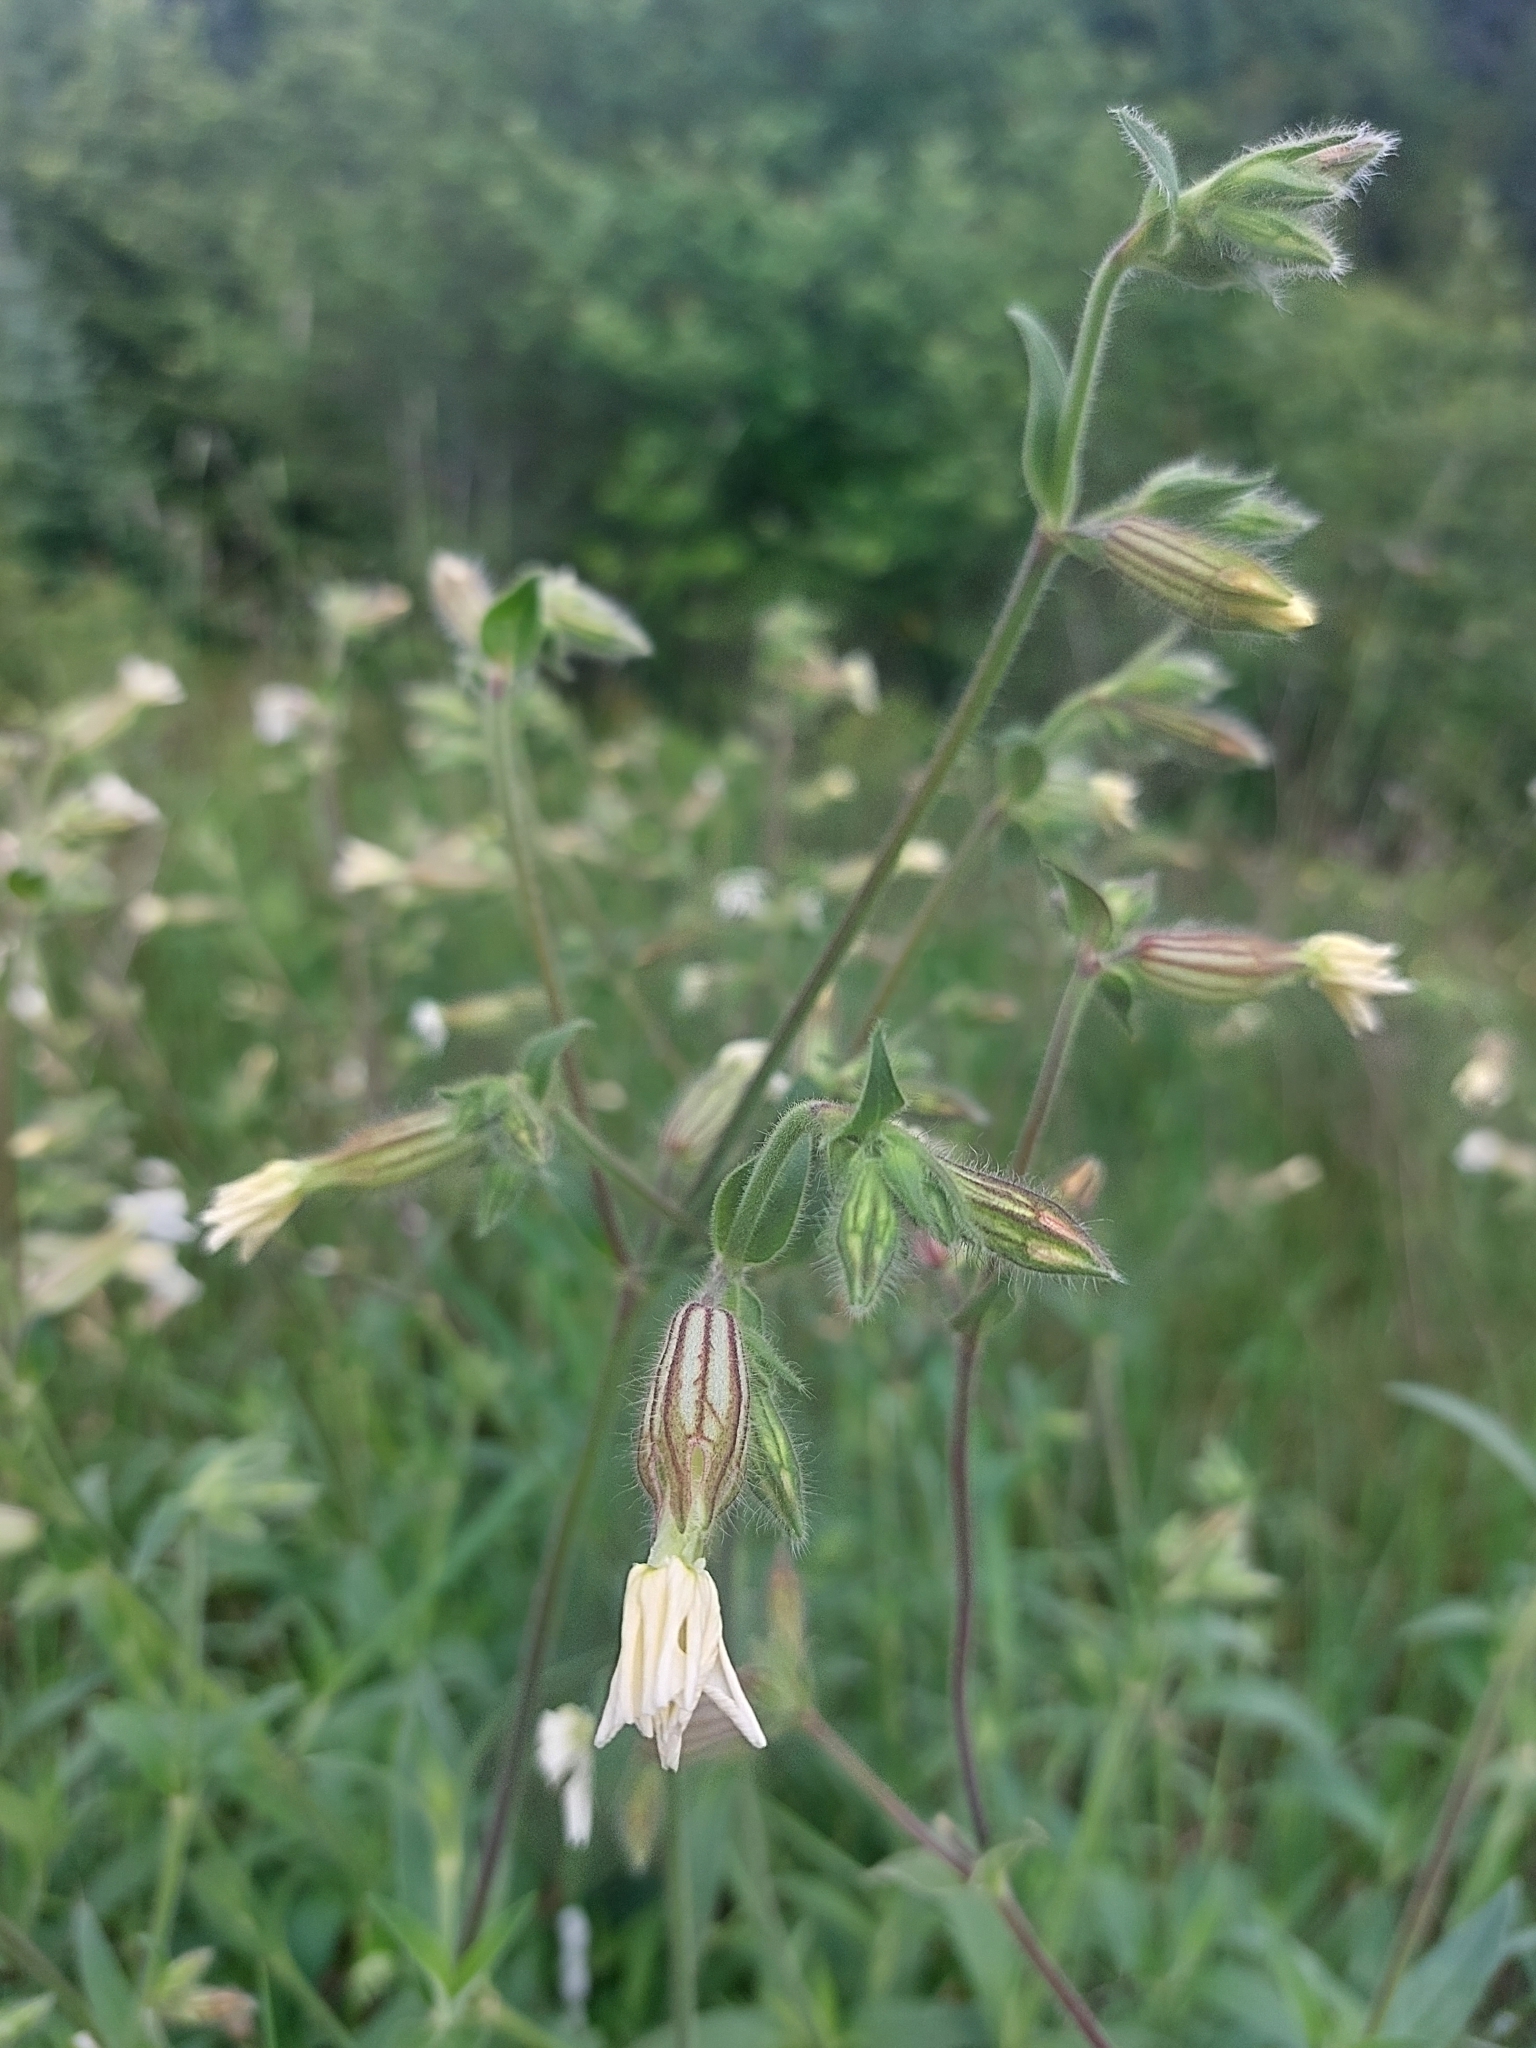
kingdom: Plantae
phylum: Tracheophyta
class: Magnoliopsida
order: Caryophyllales
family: Caryophyllaceae
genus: Silene
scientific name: Silene latifolia
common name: White campion
